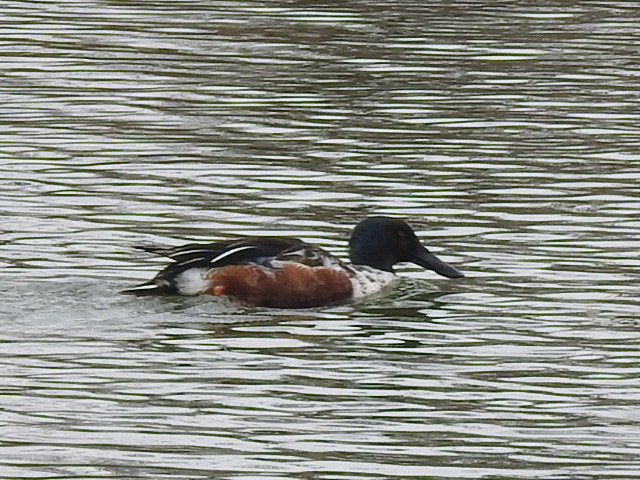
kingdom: Animalia
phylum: Chordata
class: Aves
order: Anseriformes
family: Anatidae
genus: Spatula
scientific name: Spatula clypeata
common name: Northern shoveler
